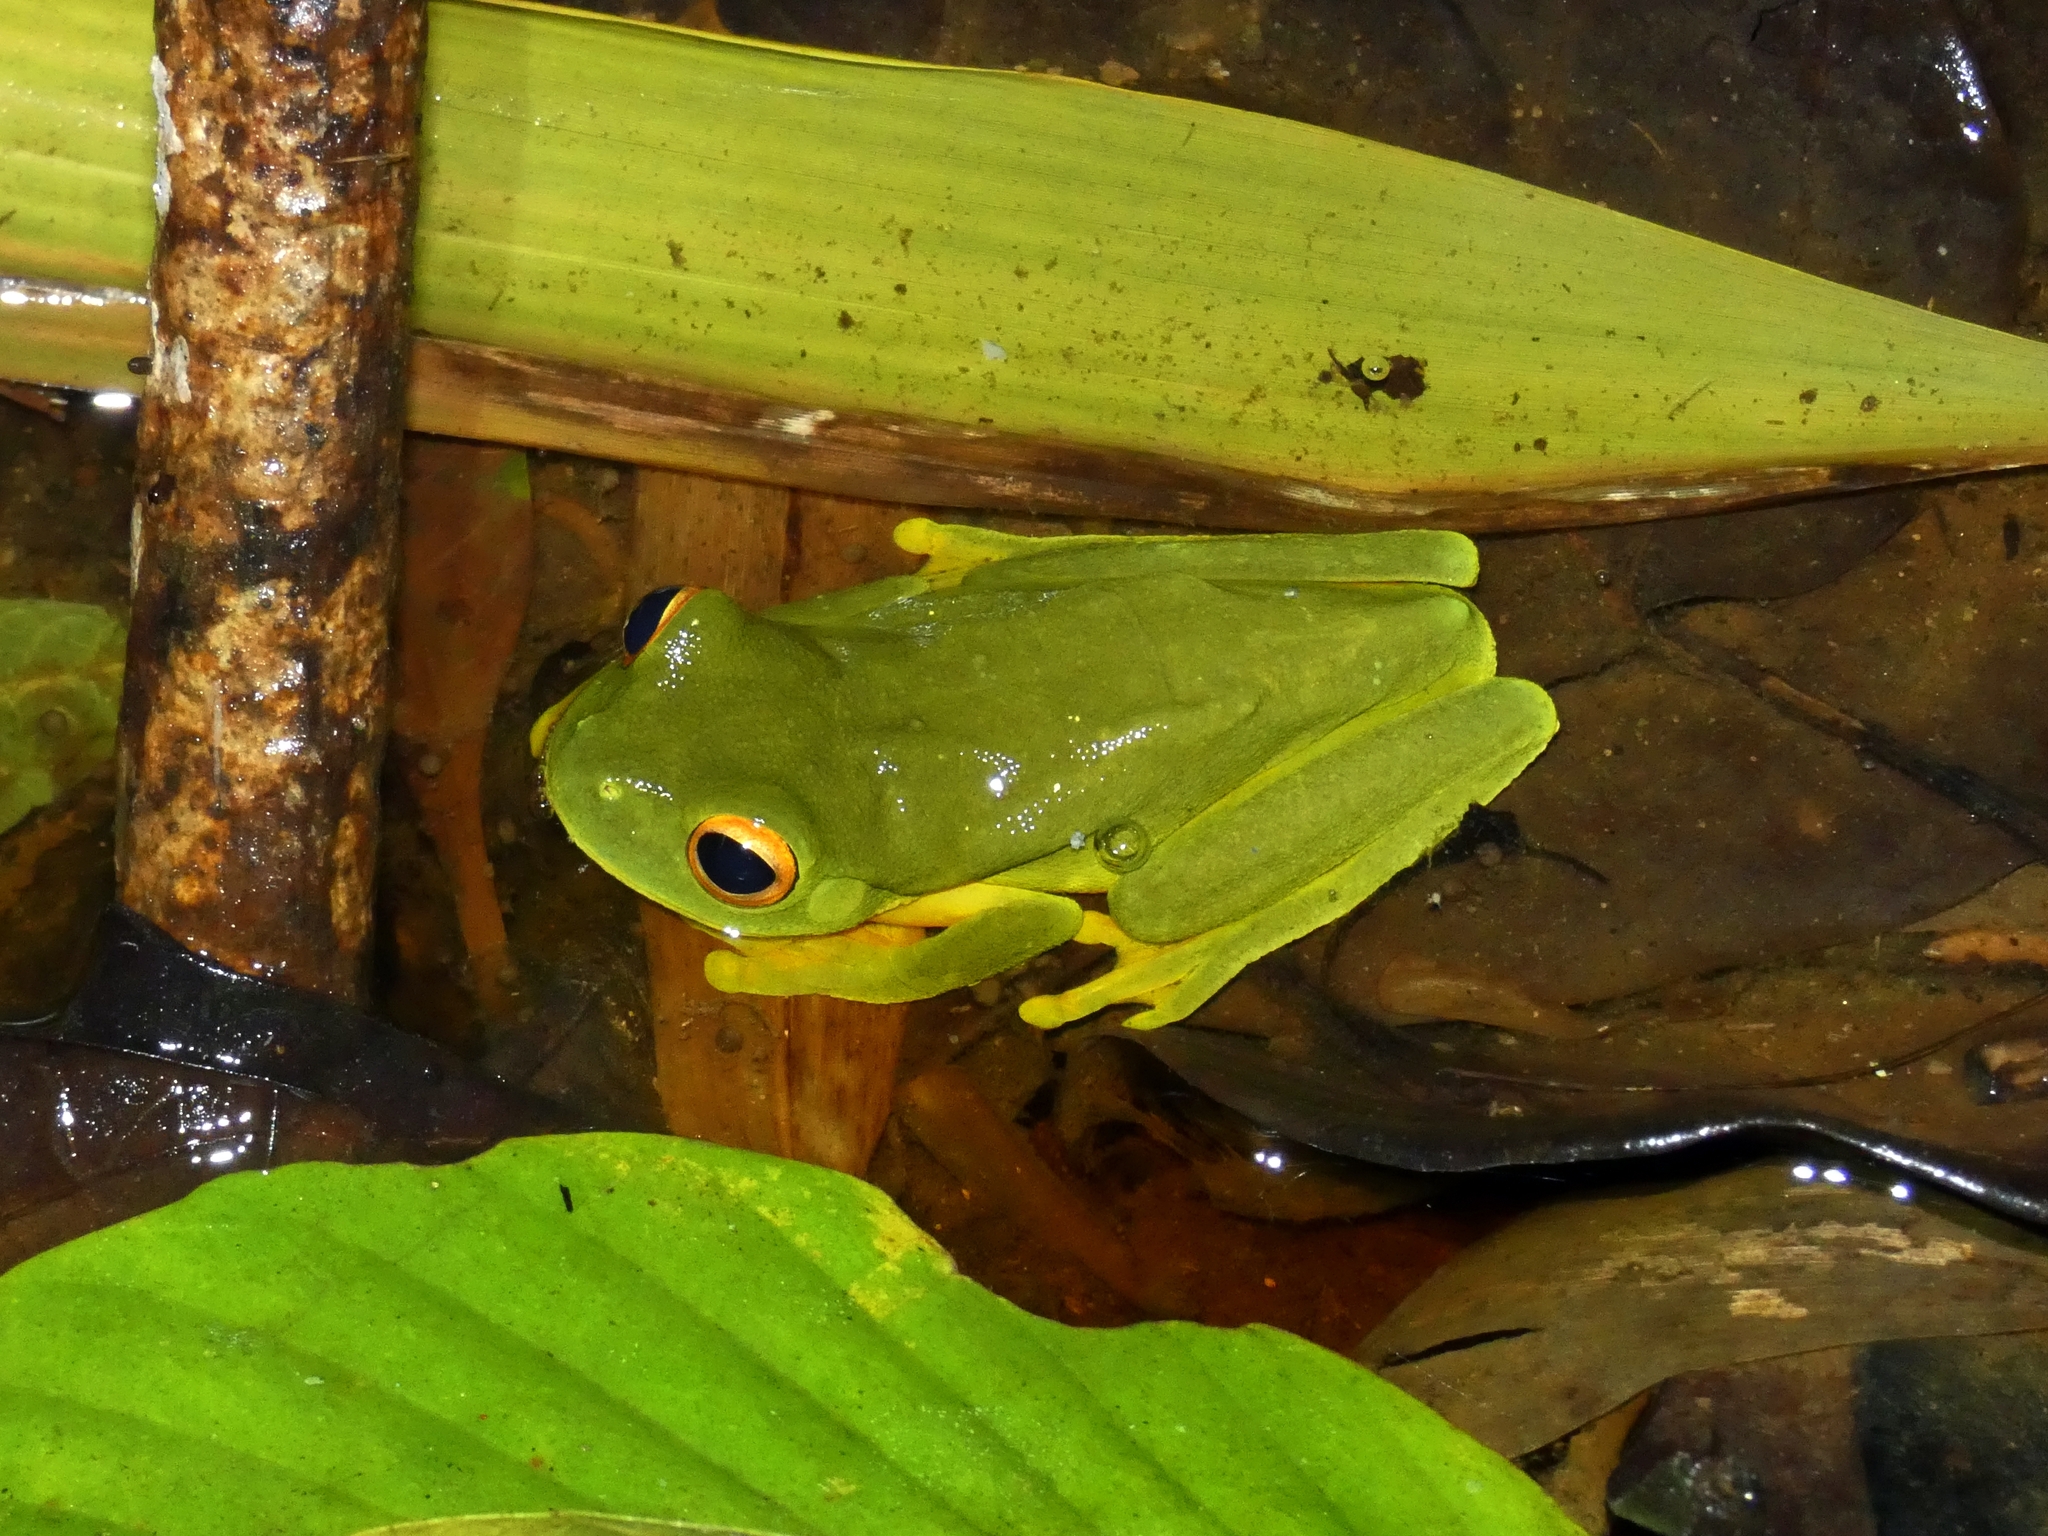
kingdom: Animalia
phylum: Chordata
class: Amphibia
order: Anura
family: Pelodryadidae
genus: Ranoidea
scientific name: Ranoidea xanthomera
